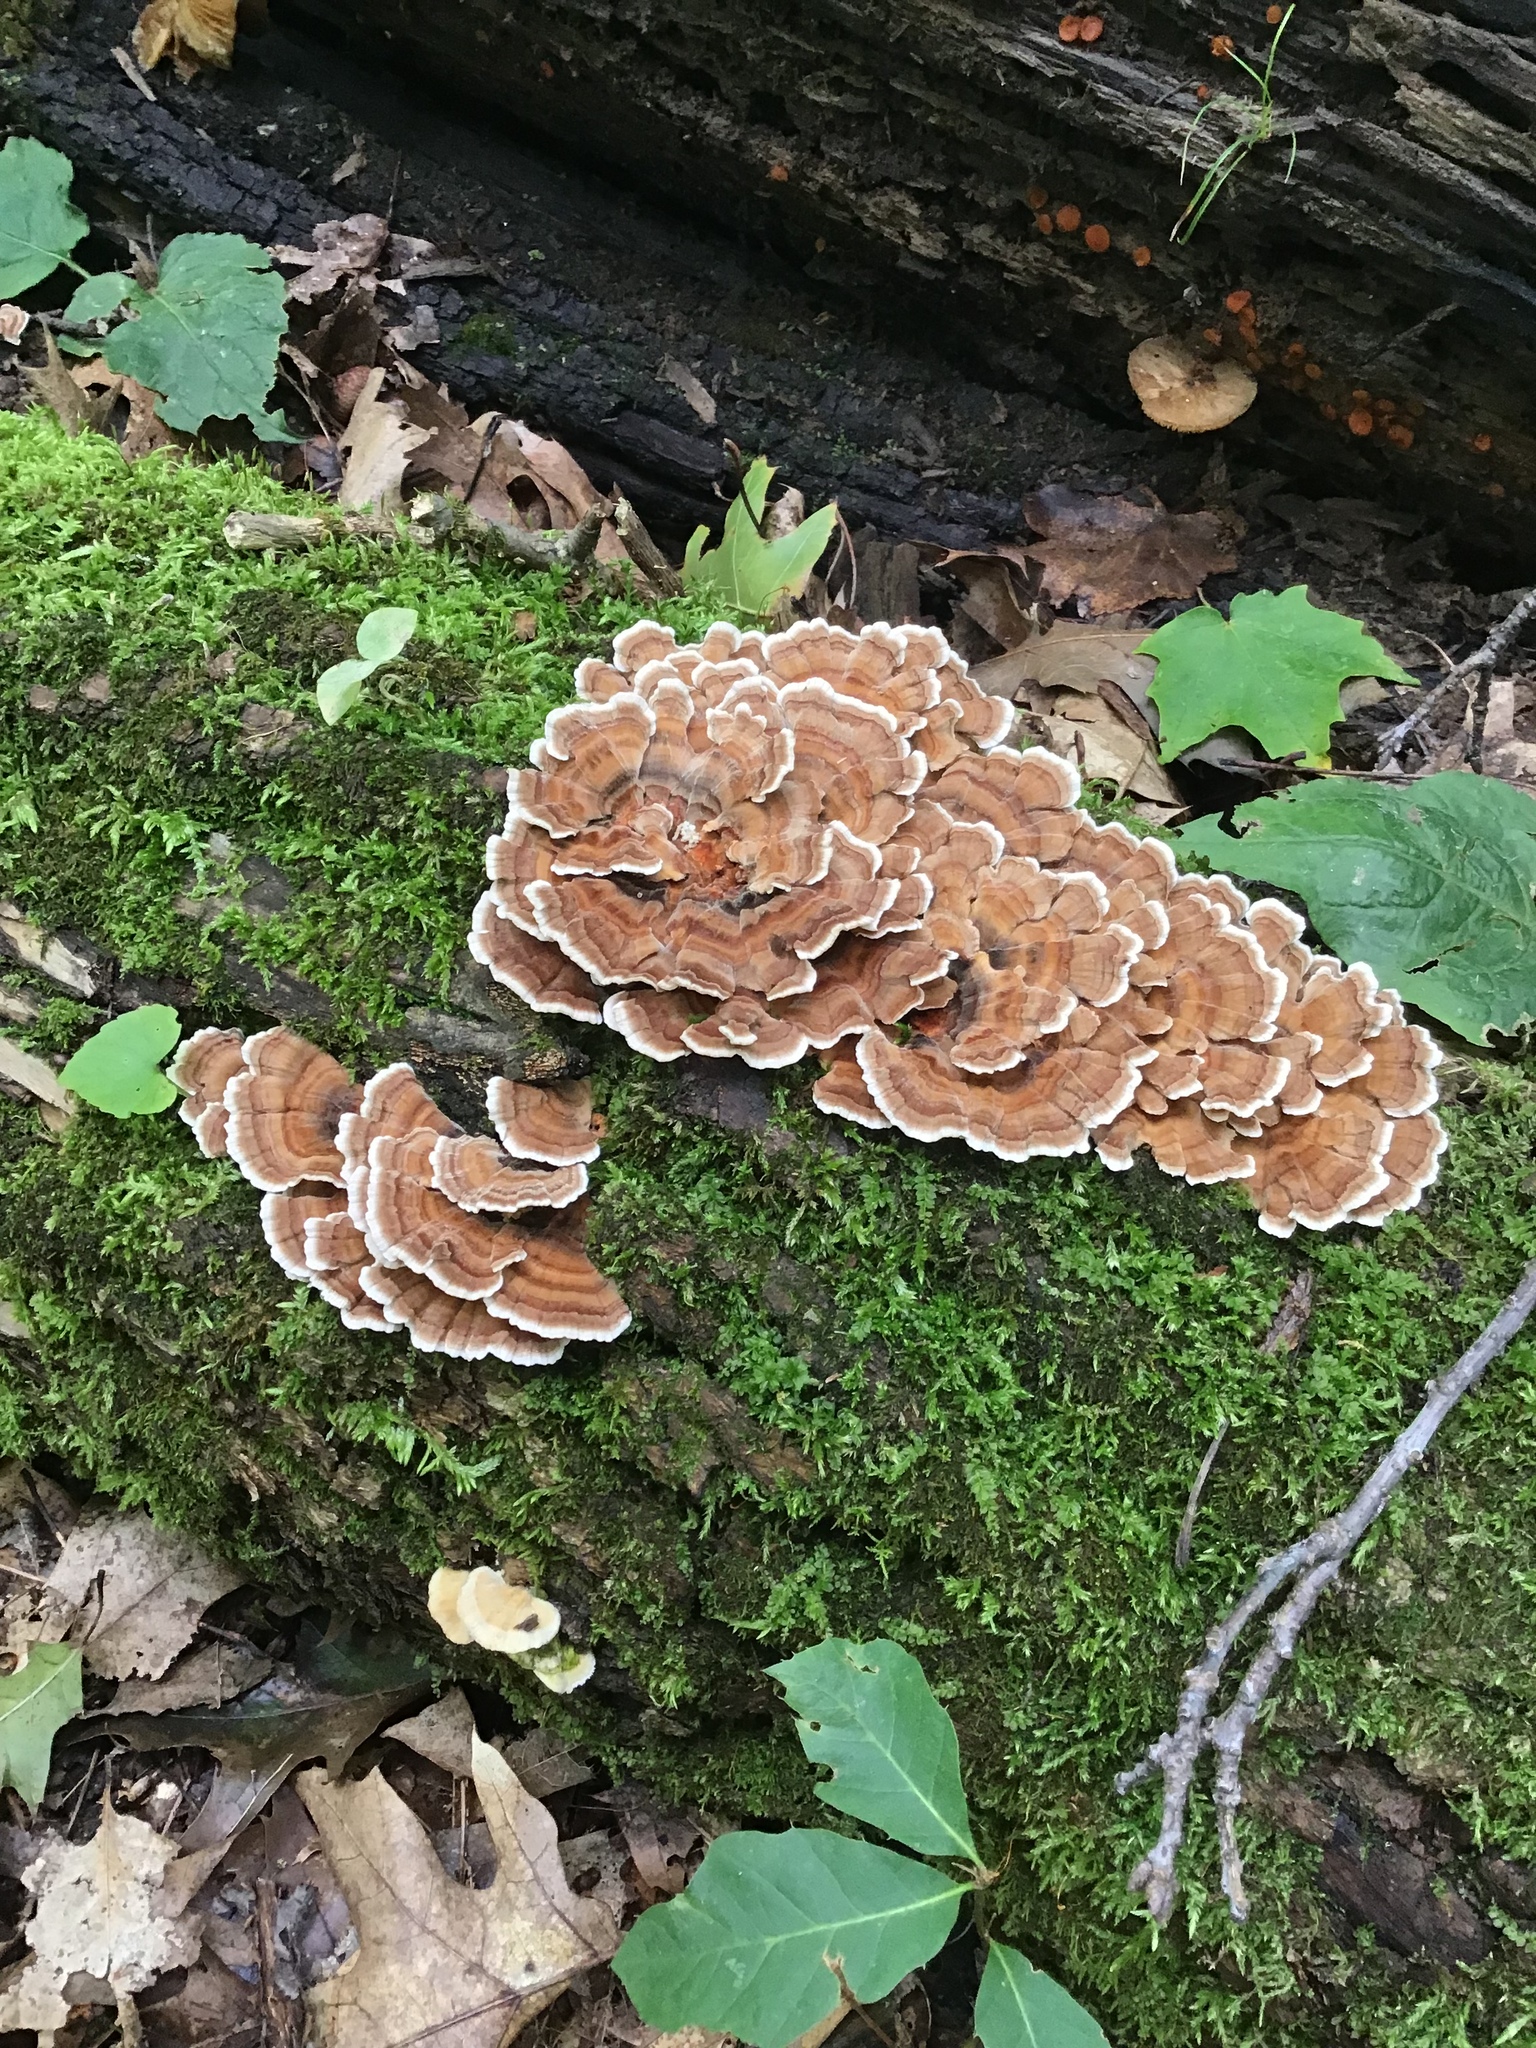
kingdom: Fungi
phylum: Basidiomycota
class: Agaricomycetes
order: Polyporales
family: Polyporaceae
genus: Trametes
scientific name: Trametes versicolor
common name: Turkeytail
